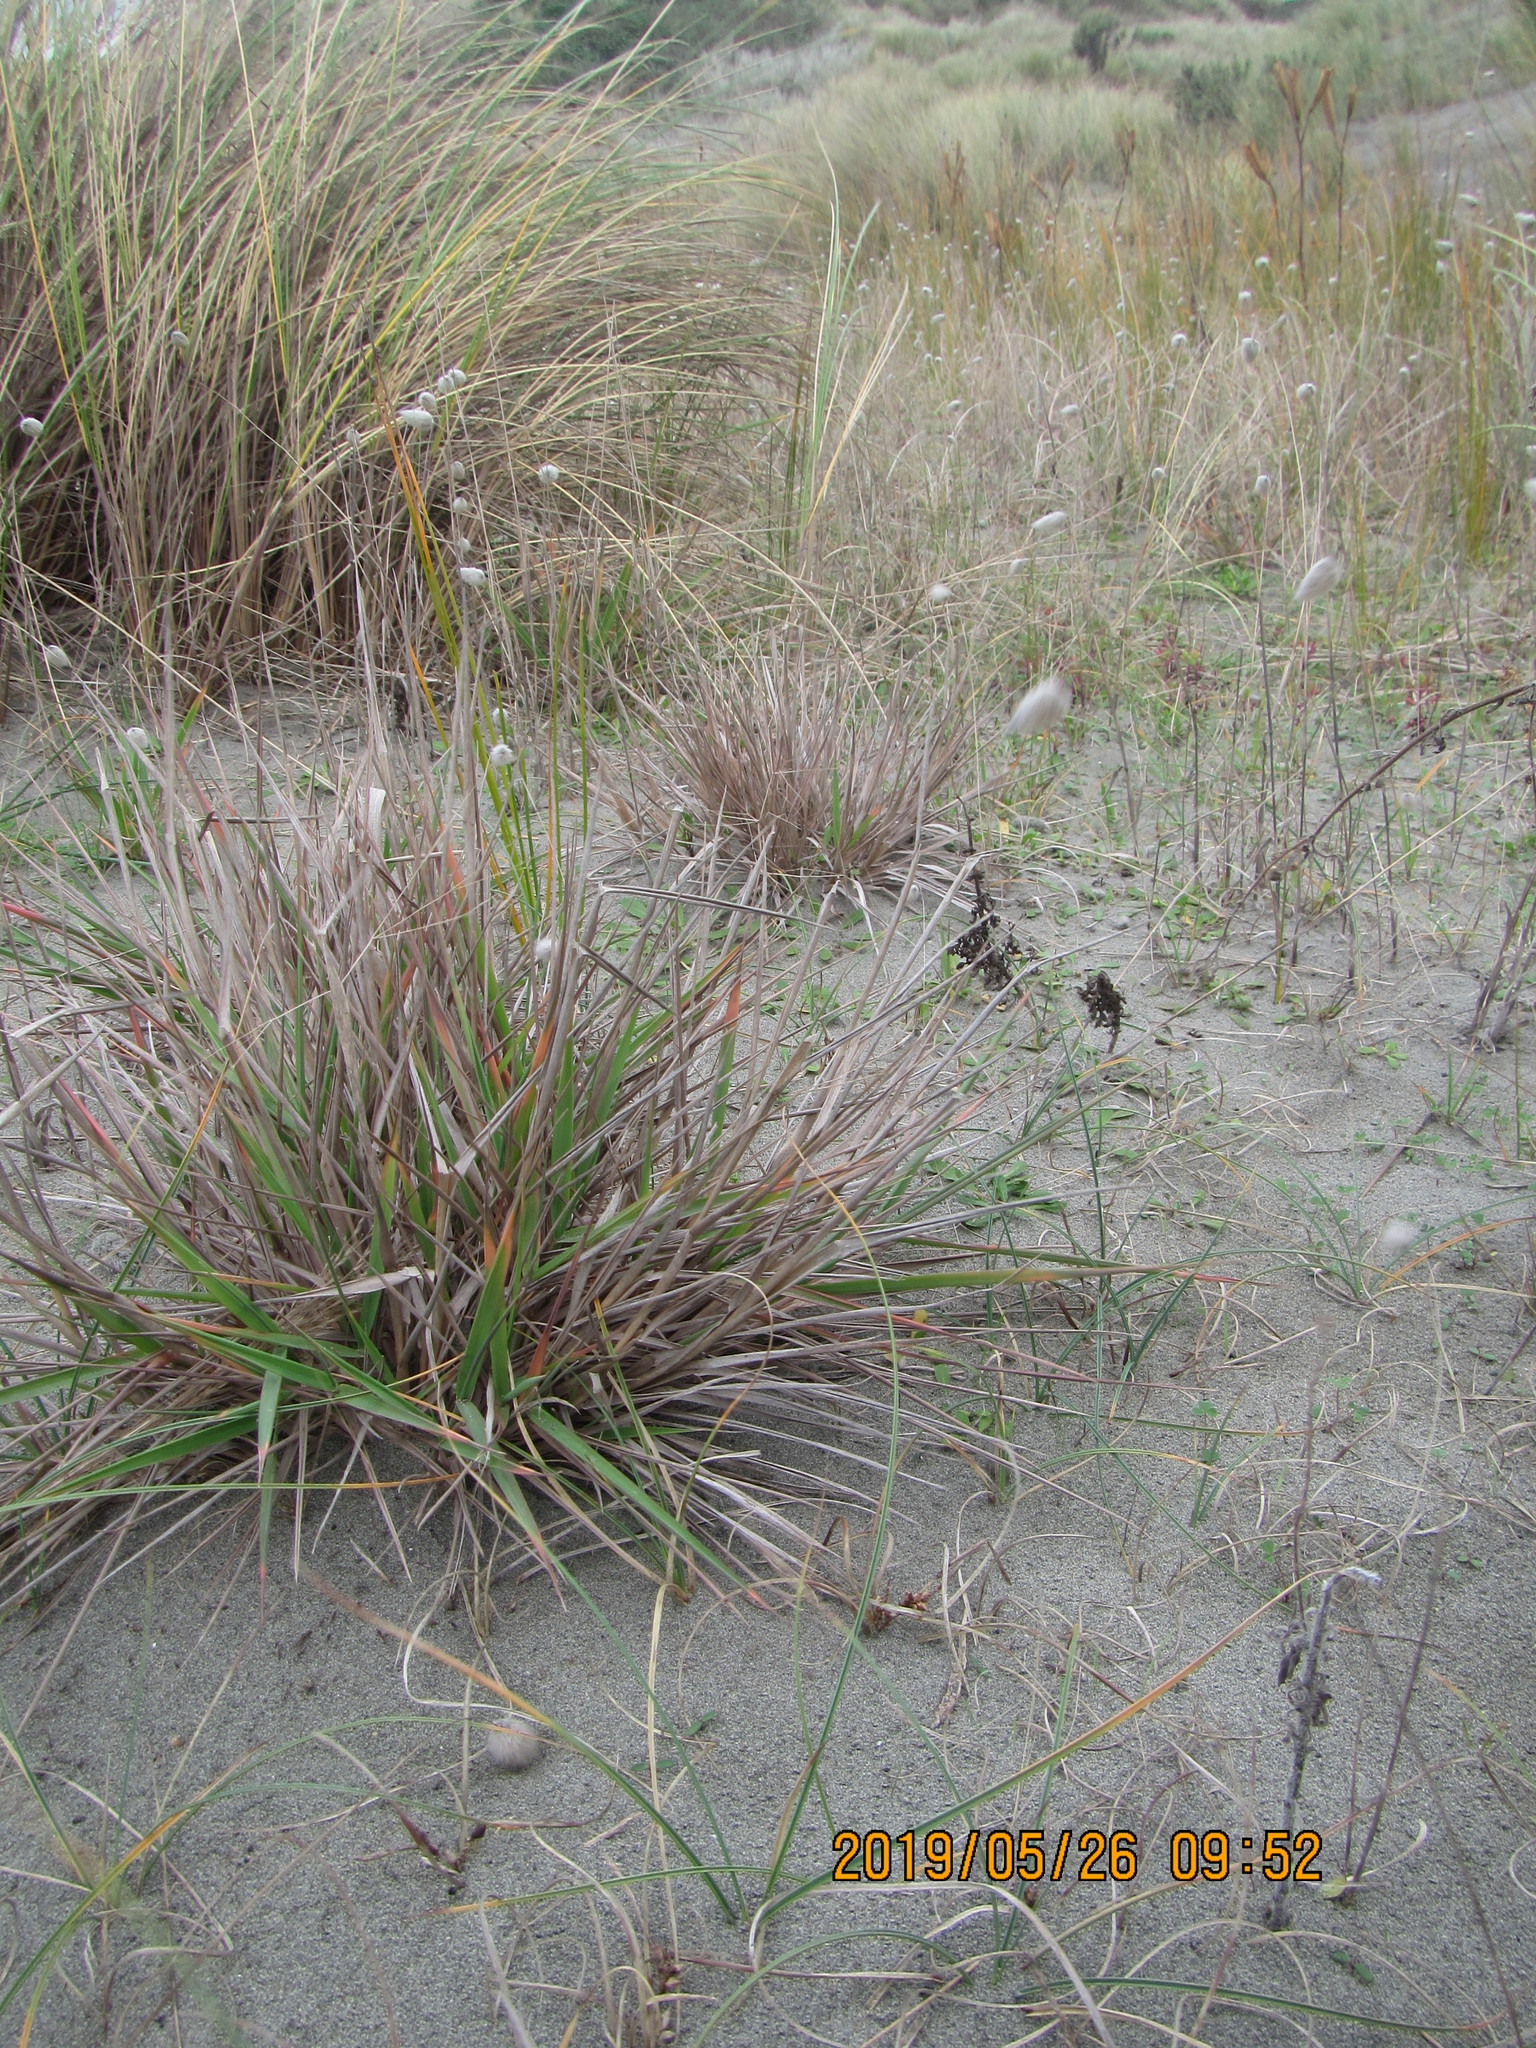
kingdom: Plantae
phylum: Tracheophyta
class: Liliopsida
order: Poales
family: Poaceae
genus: Lachnagrostis
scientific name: Lachnagrostis billardierei
